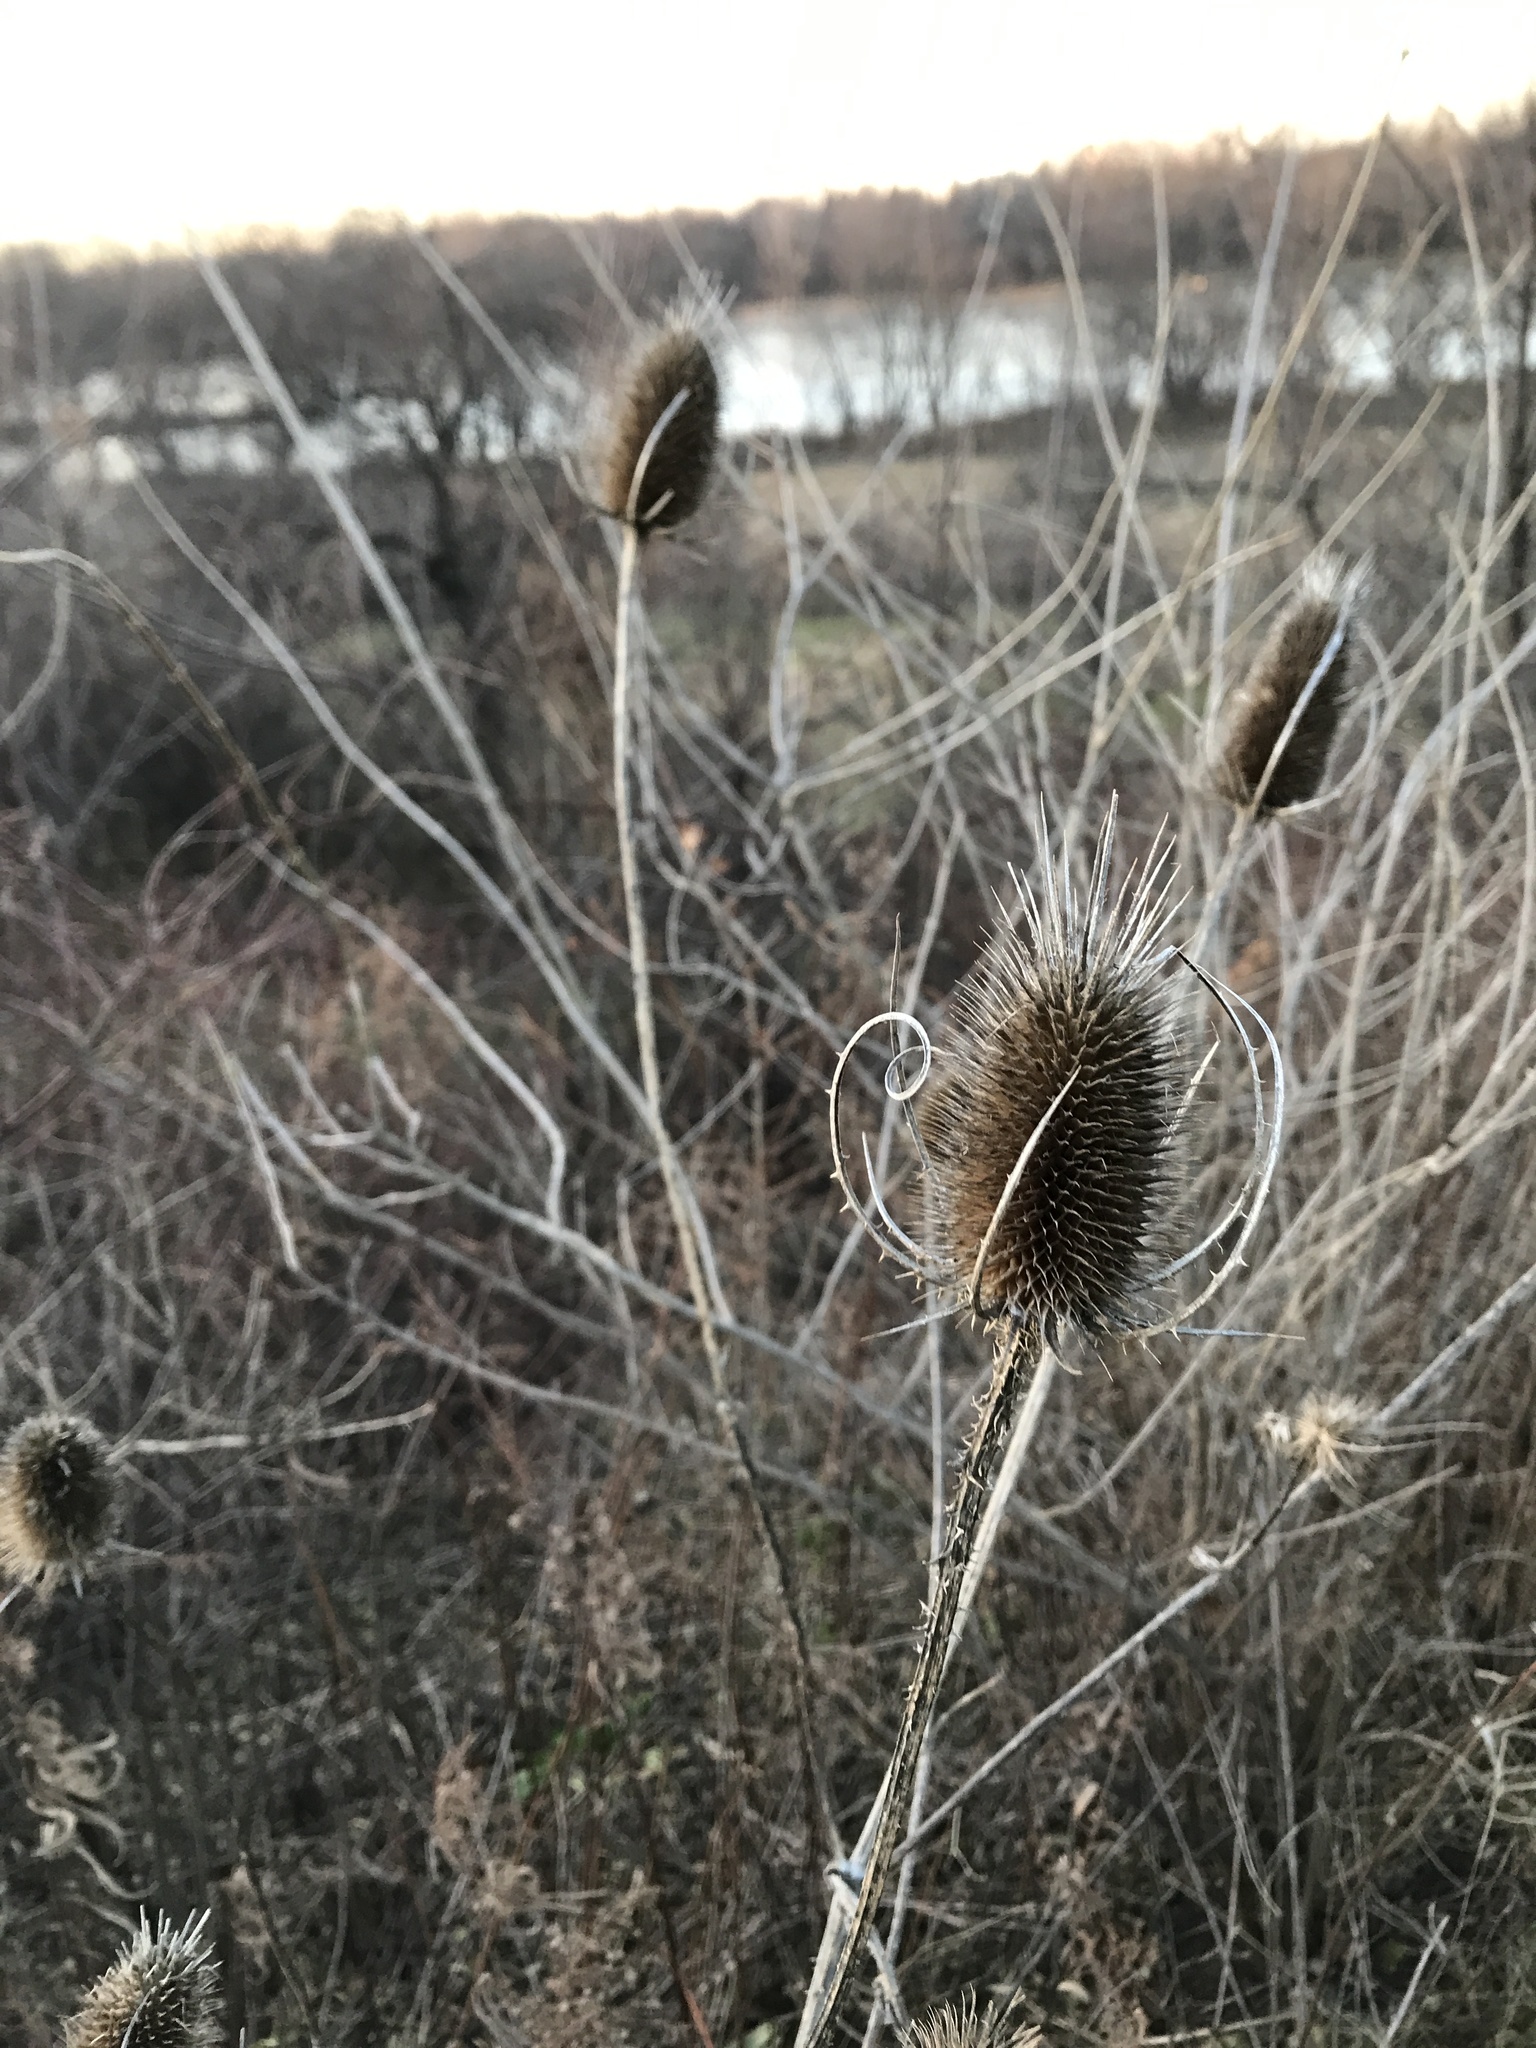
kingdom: Plantae
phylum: Tracheophyta
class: Magnoliopsida
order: Dipsacales
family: Caprifoliaceae
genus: Dipsacus
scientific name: Dipsacus fullonum
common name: Teasel
